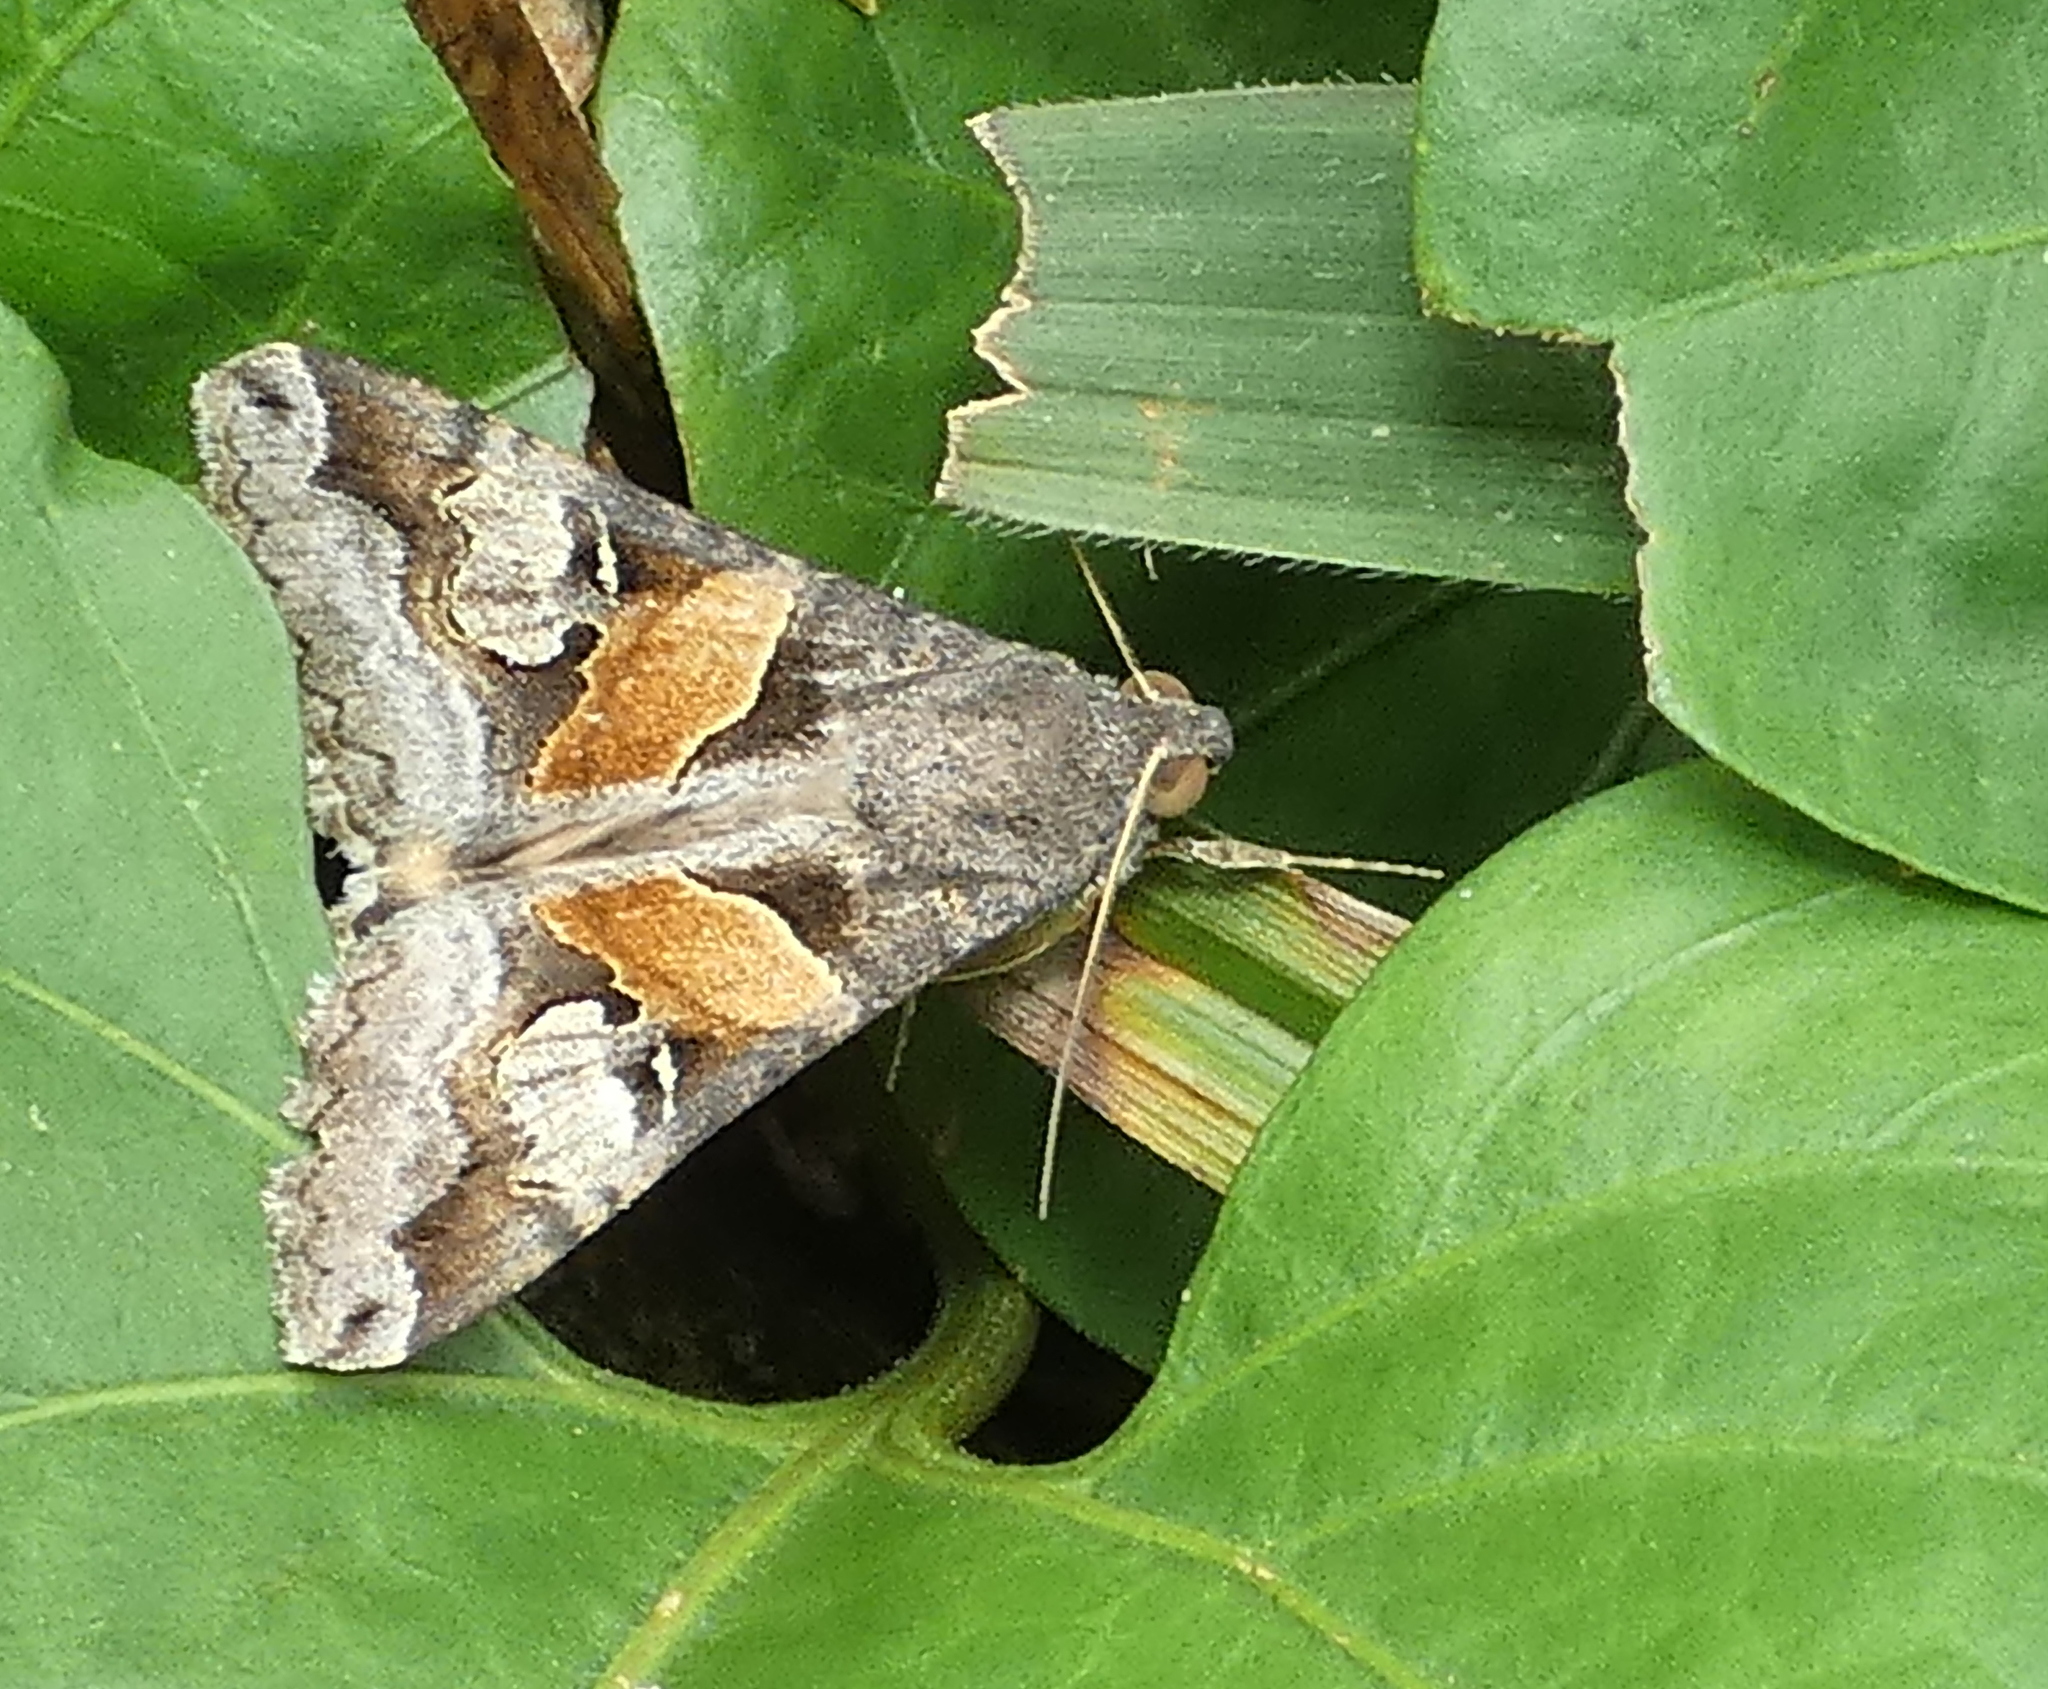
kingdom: Animalia
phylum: Arthropoda
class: Insecta
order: Lepidoptera
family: Erebidae
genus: Melipotis
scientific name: Melipotis ochrodes
